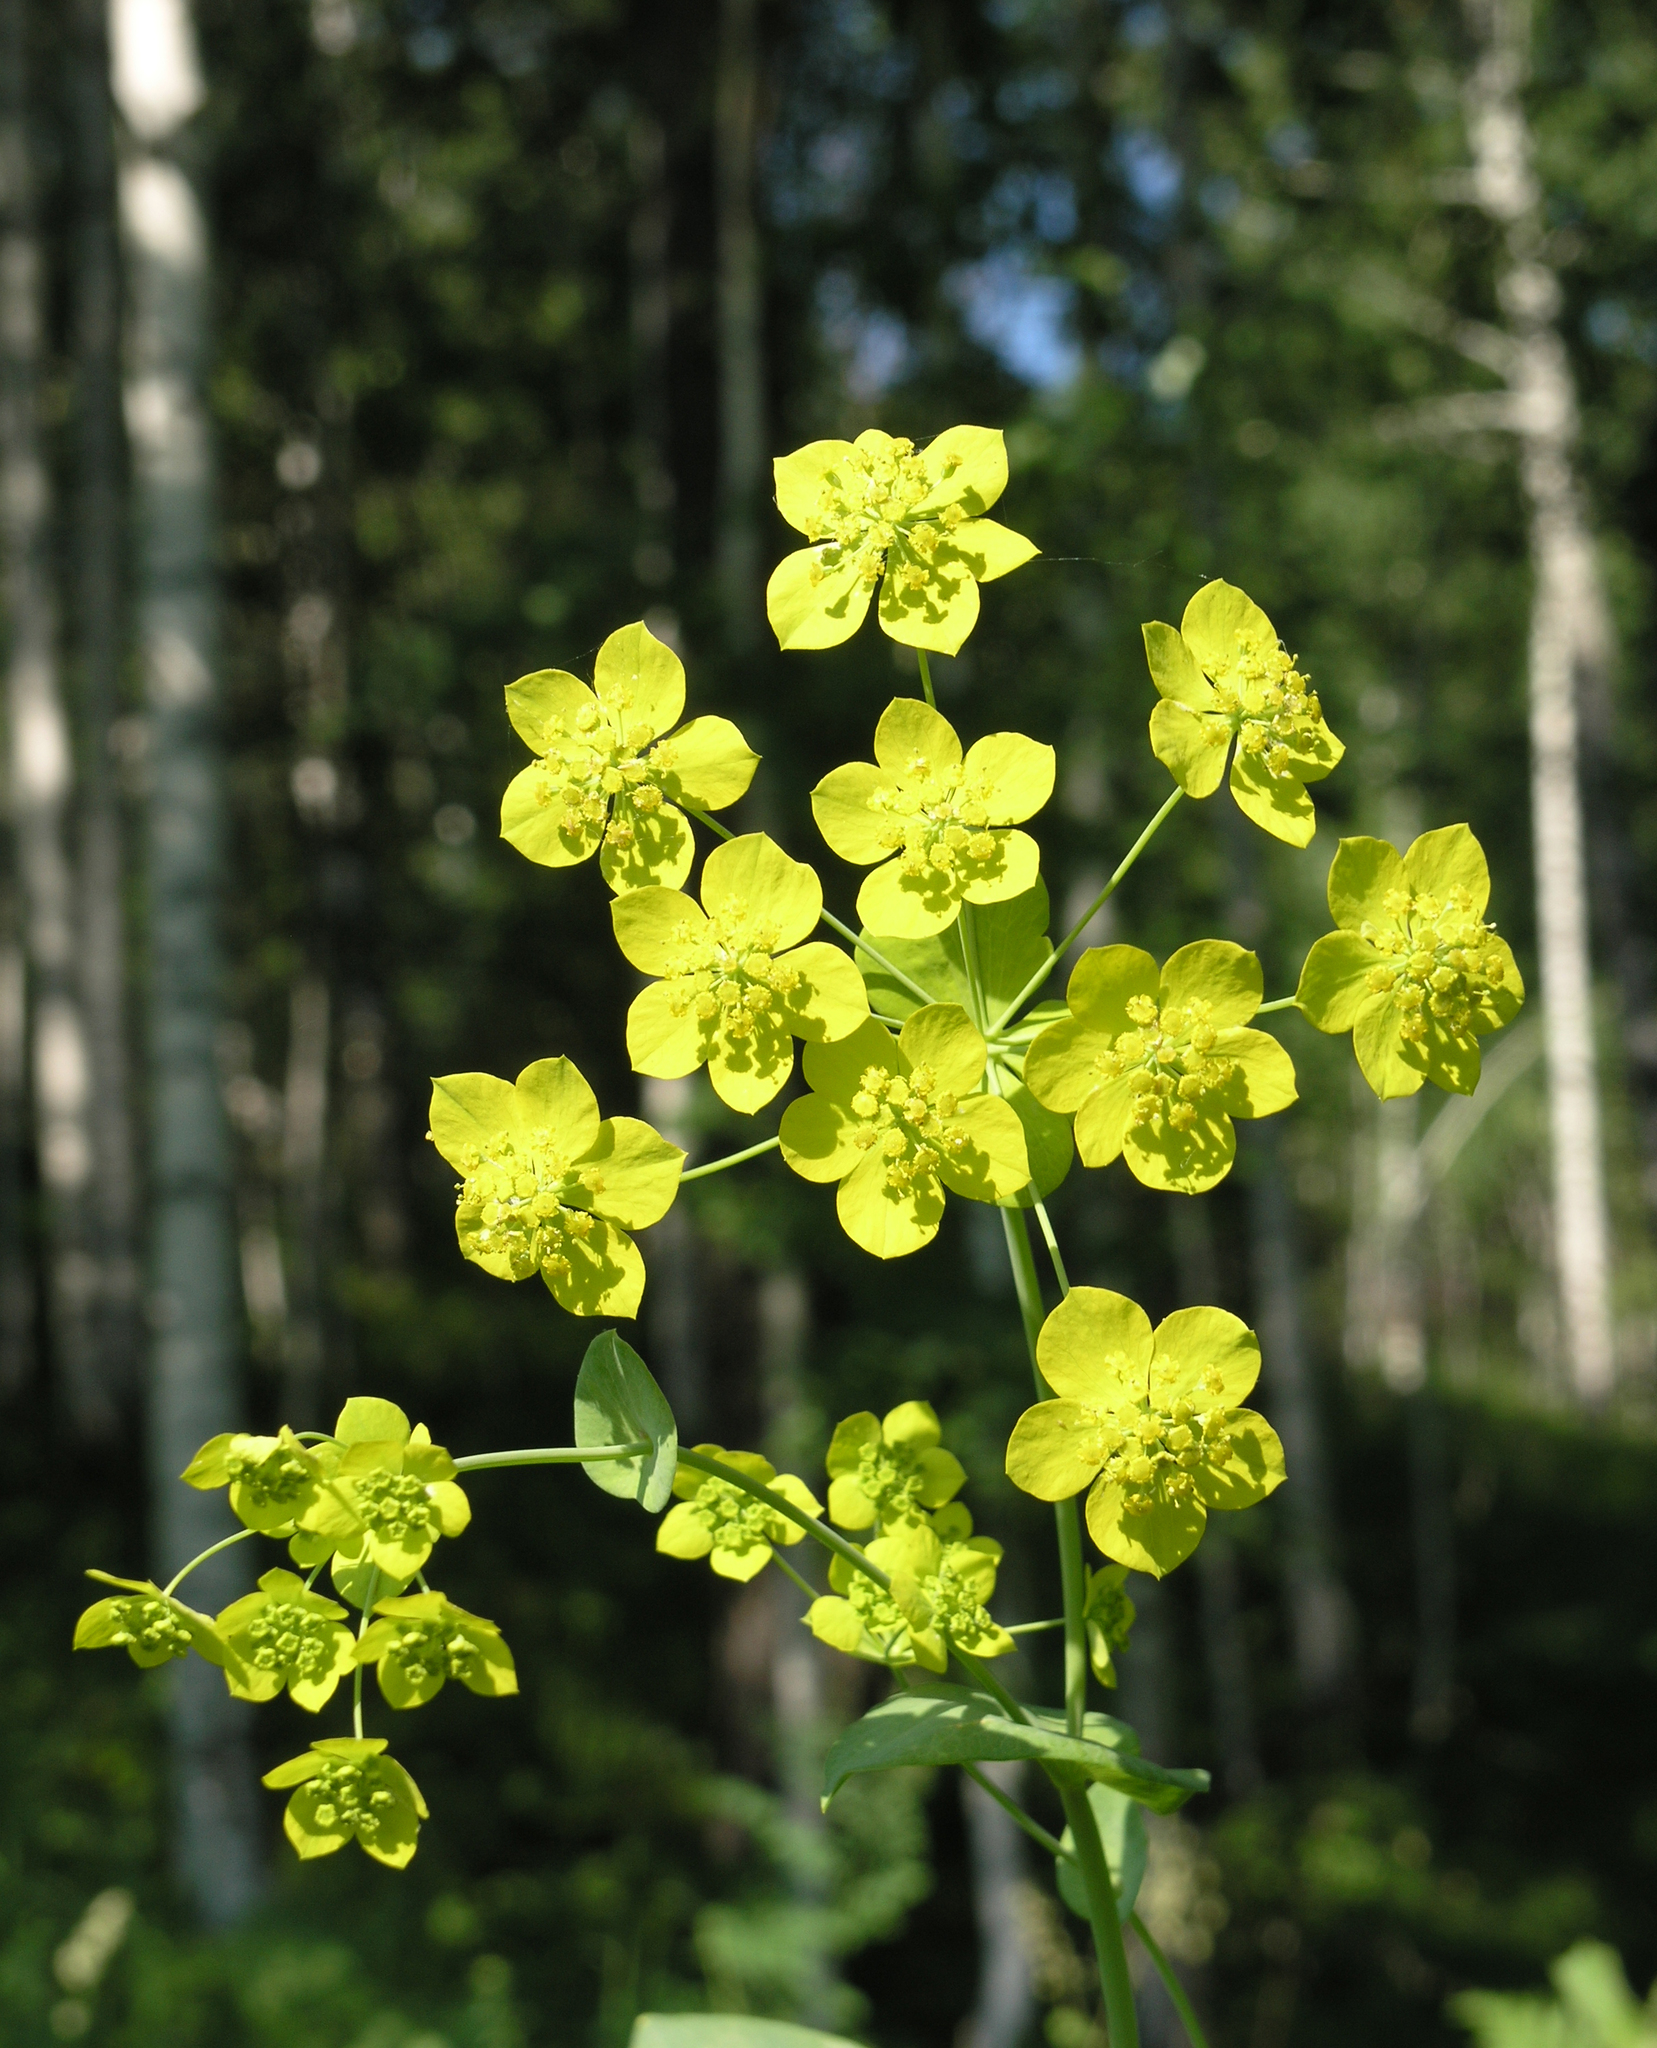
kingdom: Plantae
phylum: Tracheophyta
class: Magnoliopsida
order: Apiales
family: Apiaceae
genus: Bupleurum
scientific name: Bupleurum aureum
